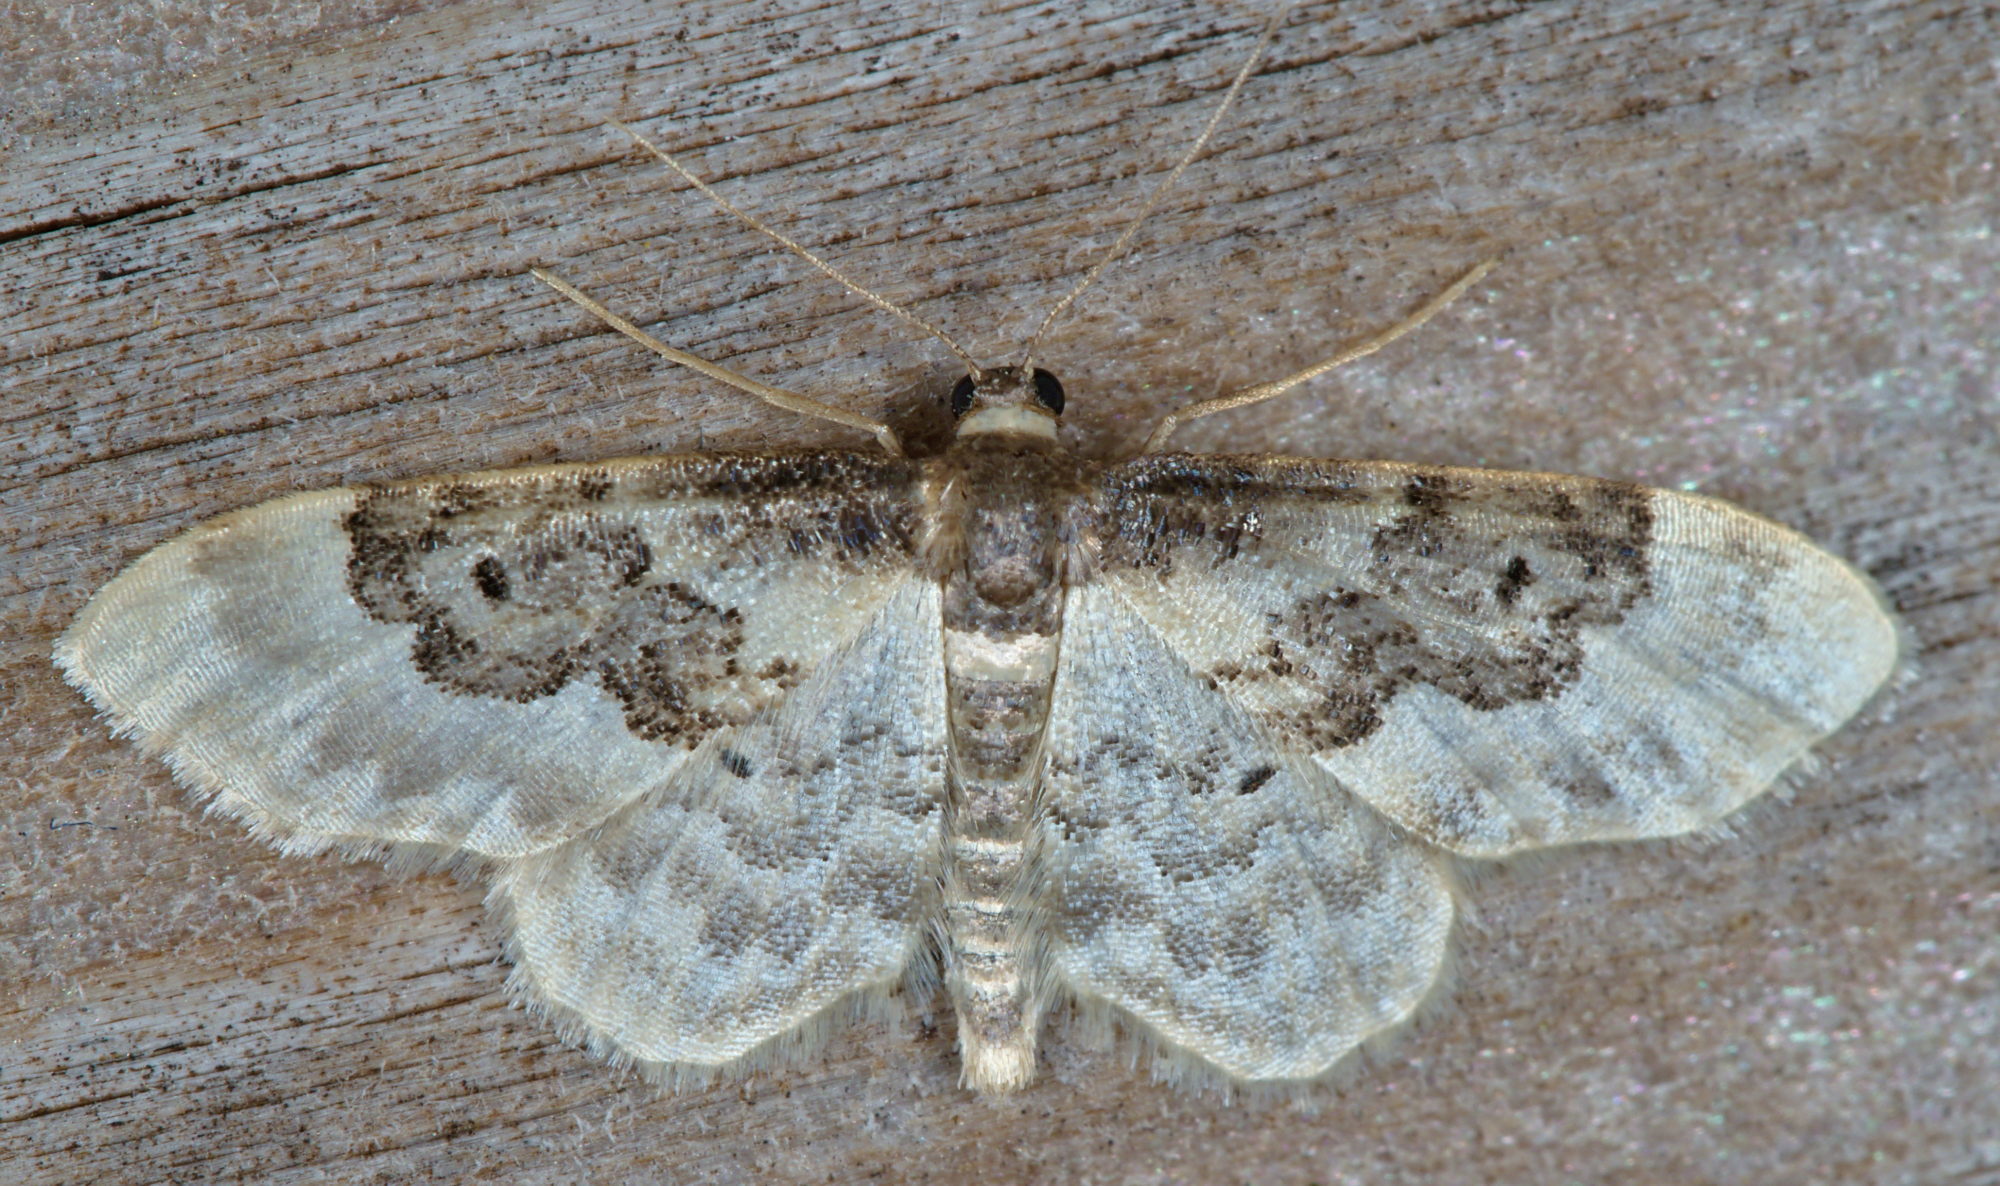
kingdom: Animalia
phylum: Arthropoda
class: Insecta
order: Lepidoptera
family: Geometridae
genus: Idaea
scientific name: Idaea rusticata
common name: Least carpet
